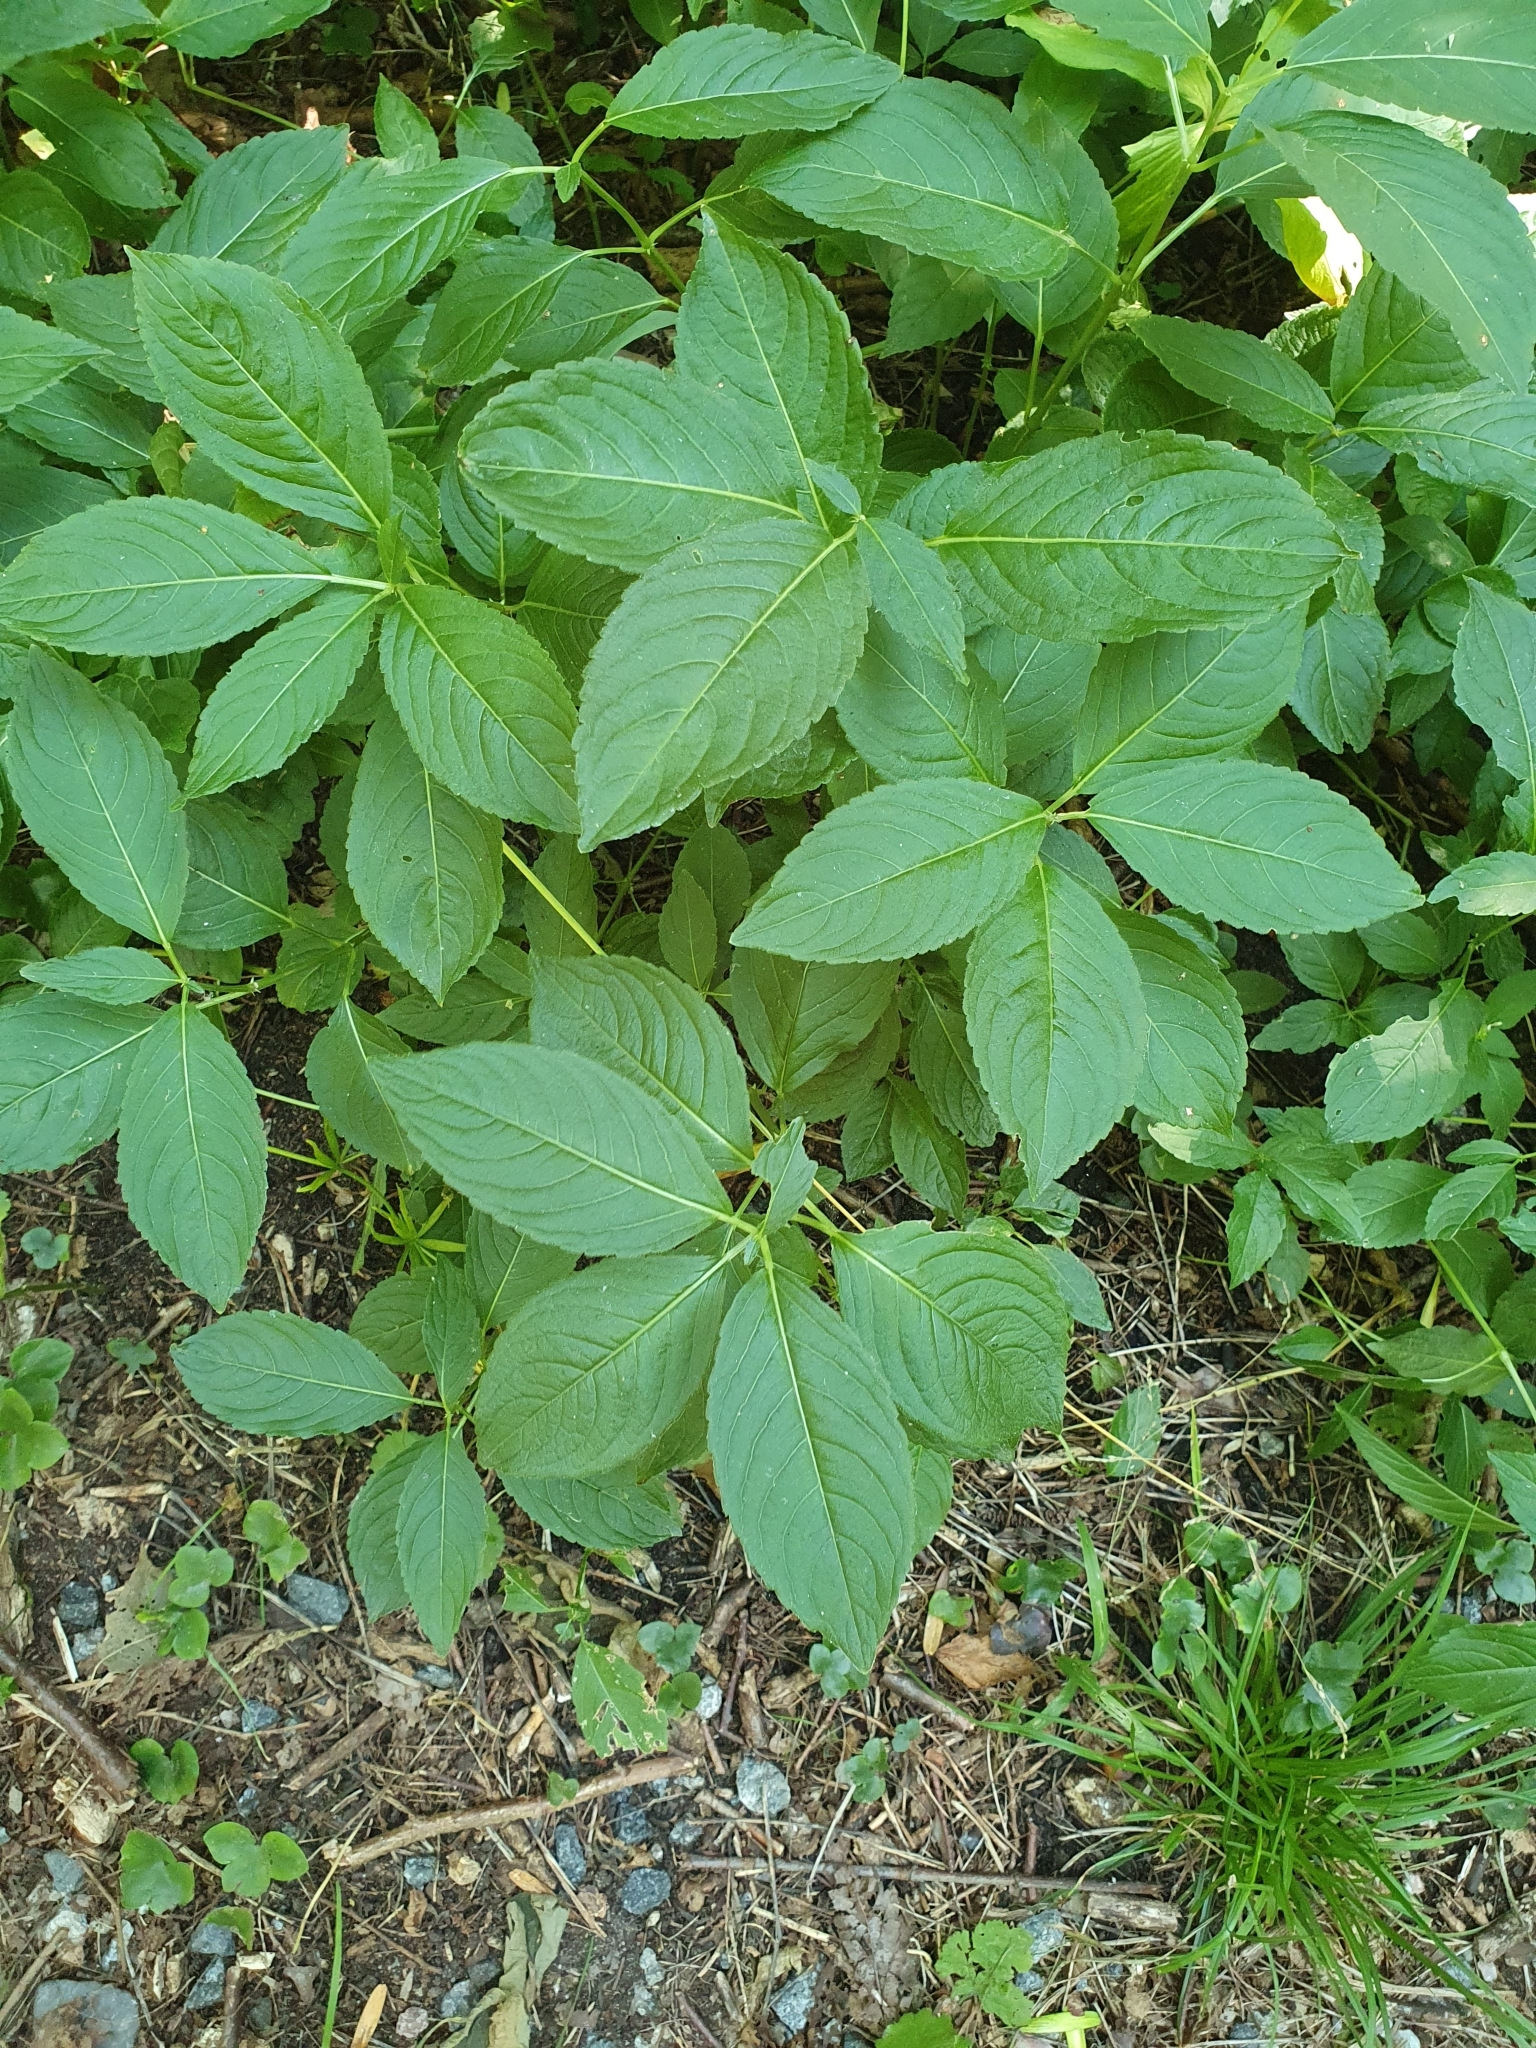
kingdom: Plantae
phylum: Tracheophyta
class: Magnoliopsida
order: Malpighiales
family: Euphorbiaceae
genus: Mercurialis
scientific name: Mercurialis perennis
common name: Dog mercury
